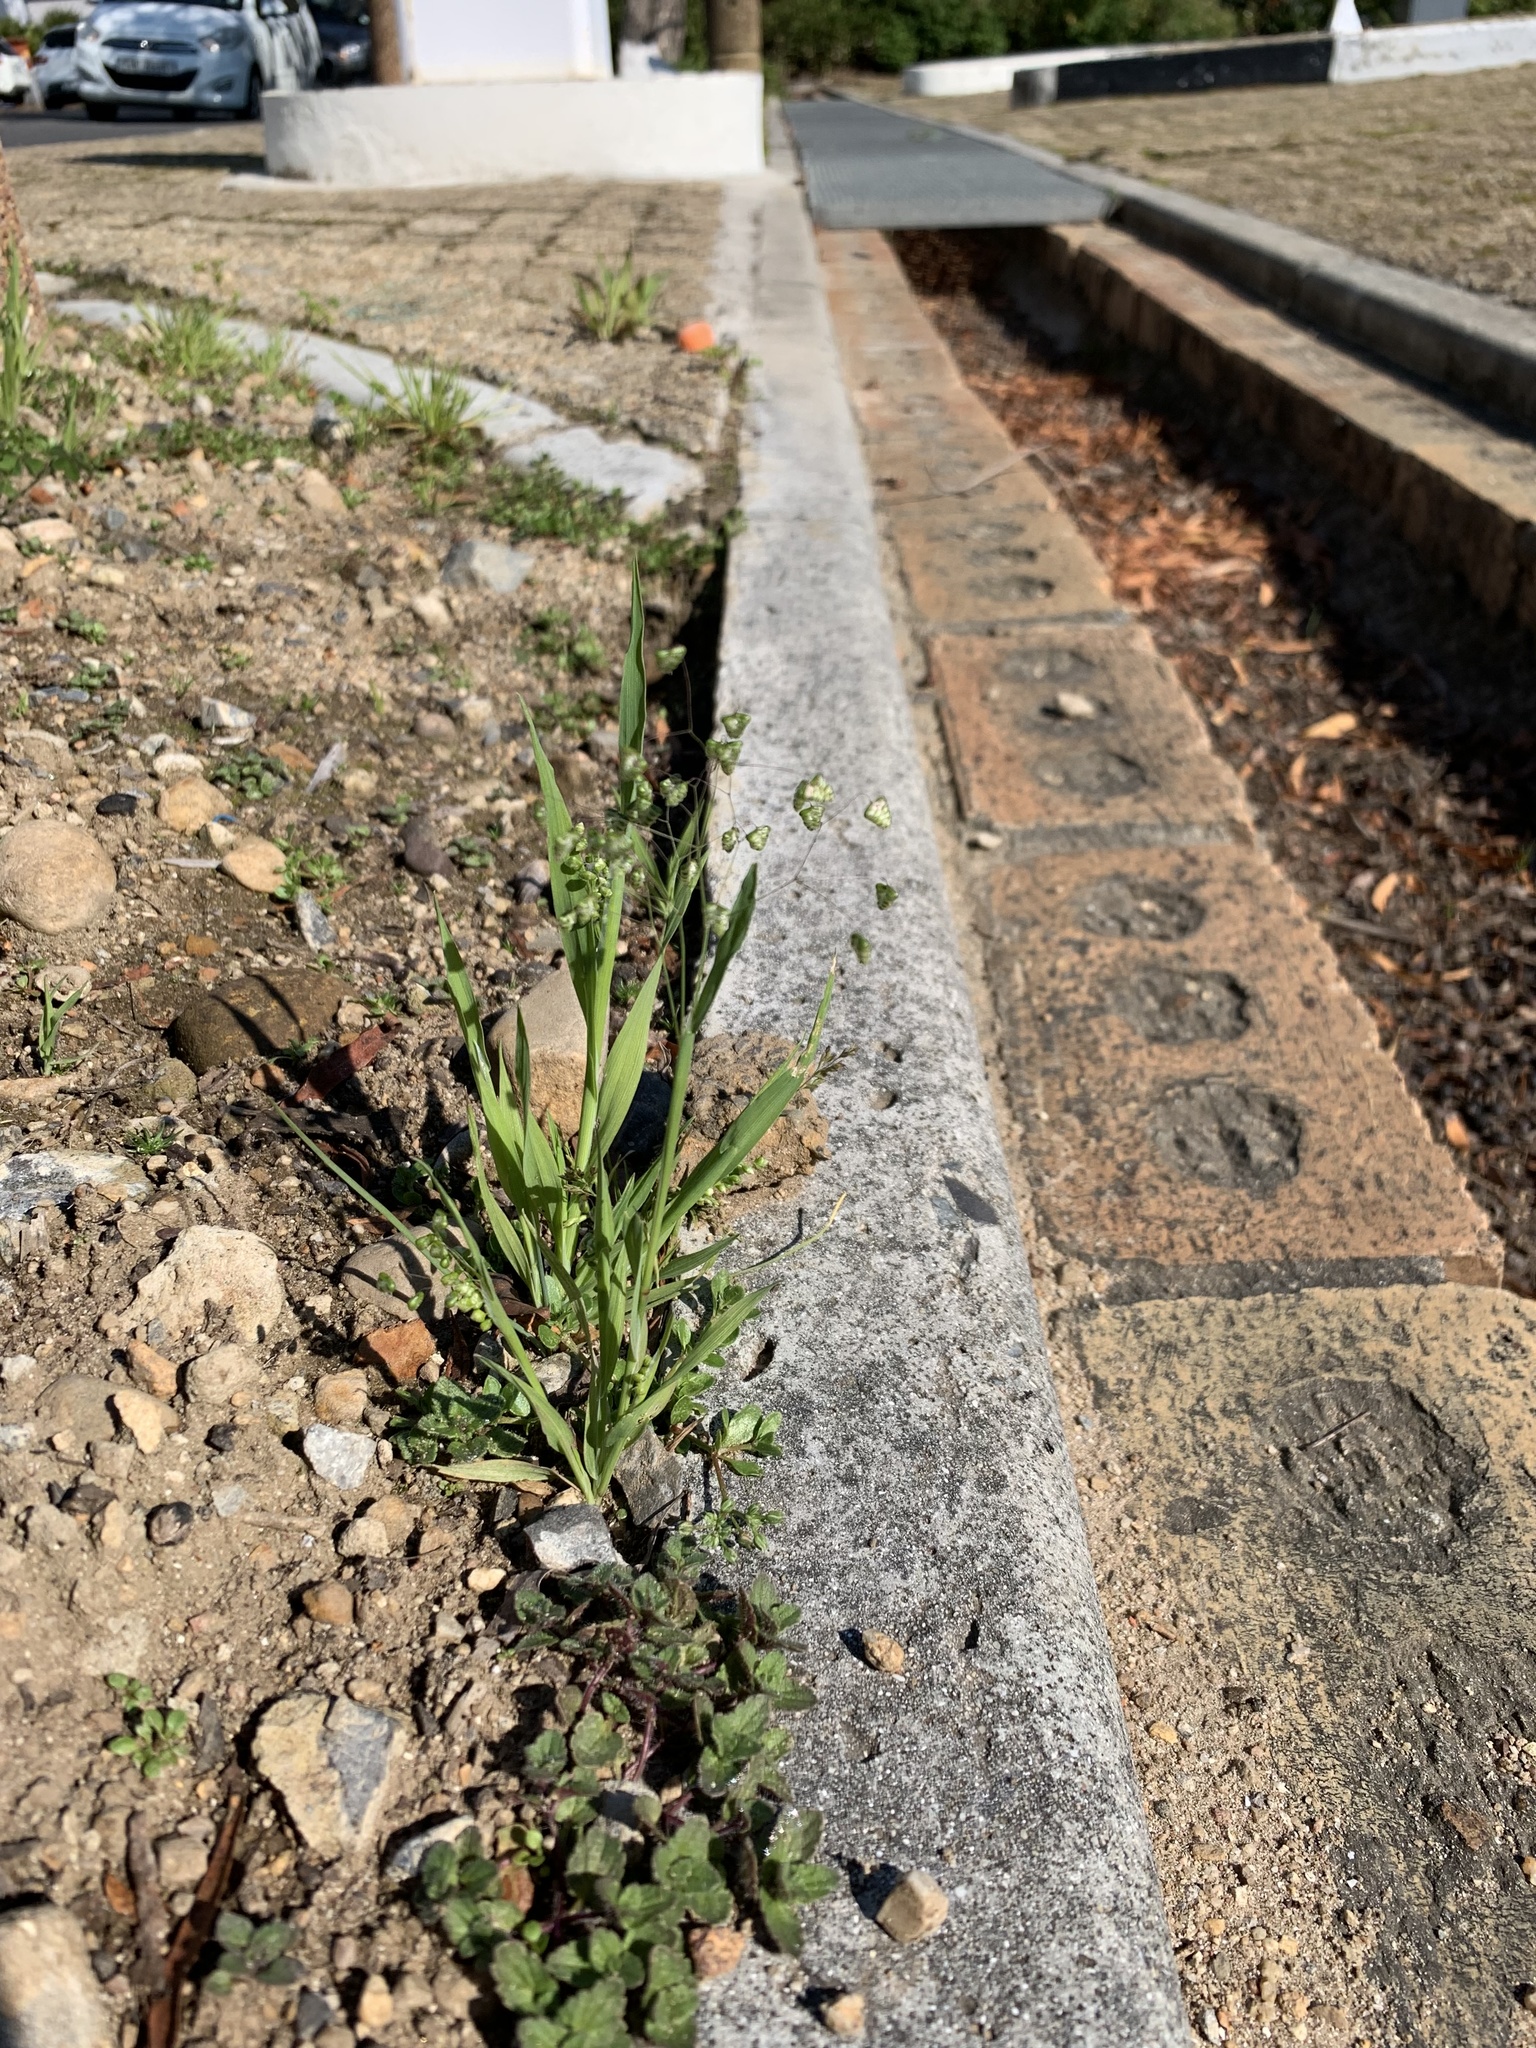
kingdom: Plantae
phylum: Tracheophyta
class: Liliopsida
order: Poales
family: Poaceae
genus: Briza
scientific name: Briza minor
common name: Lesser quaking-grass
